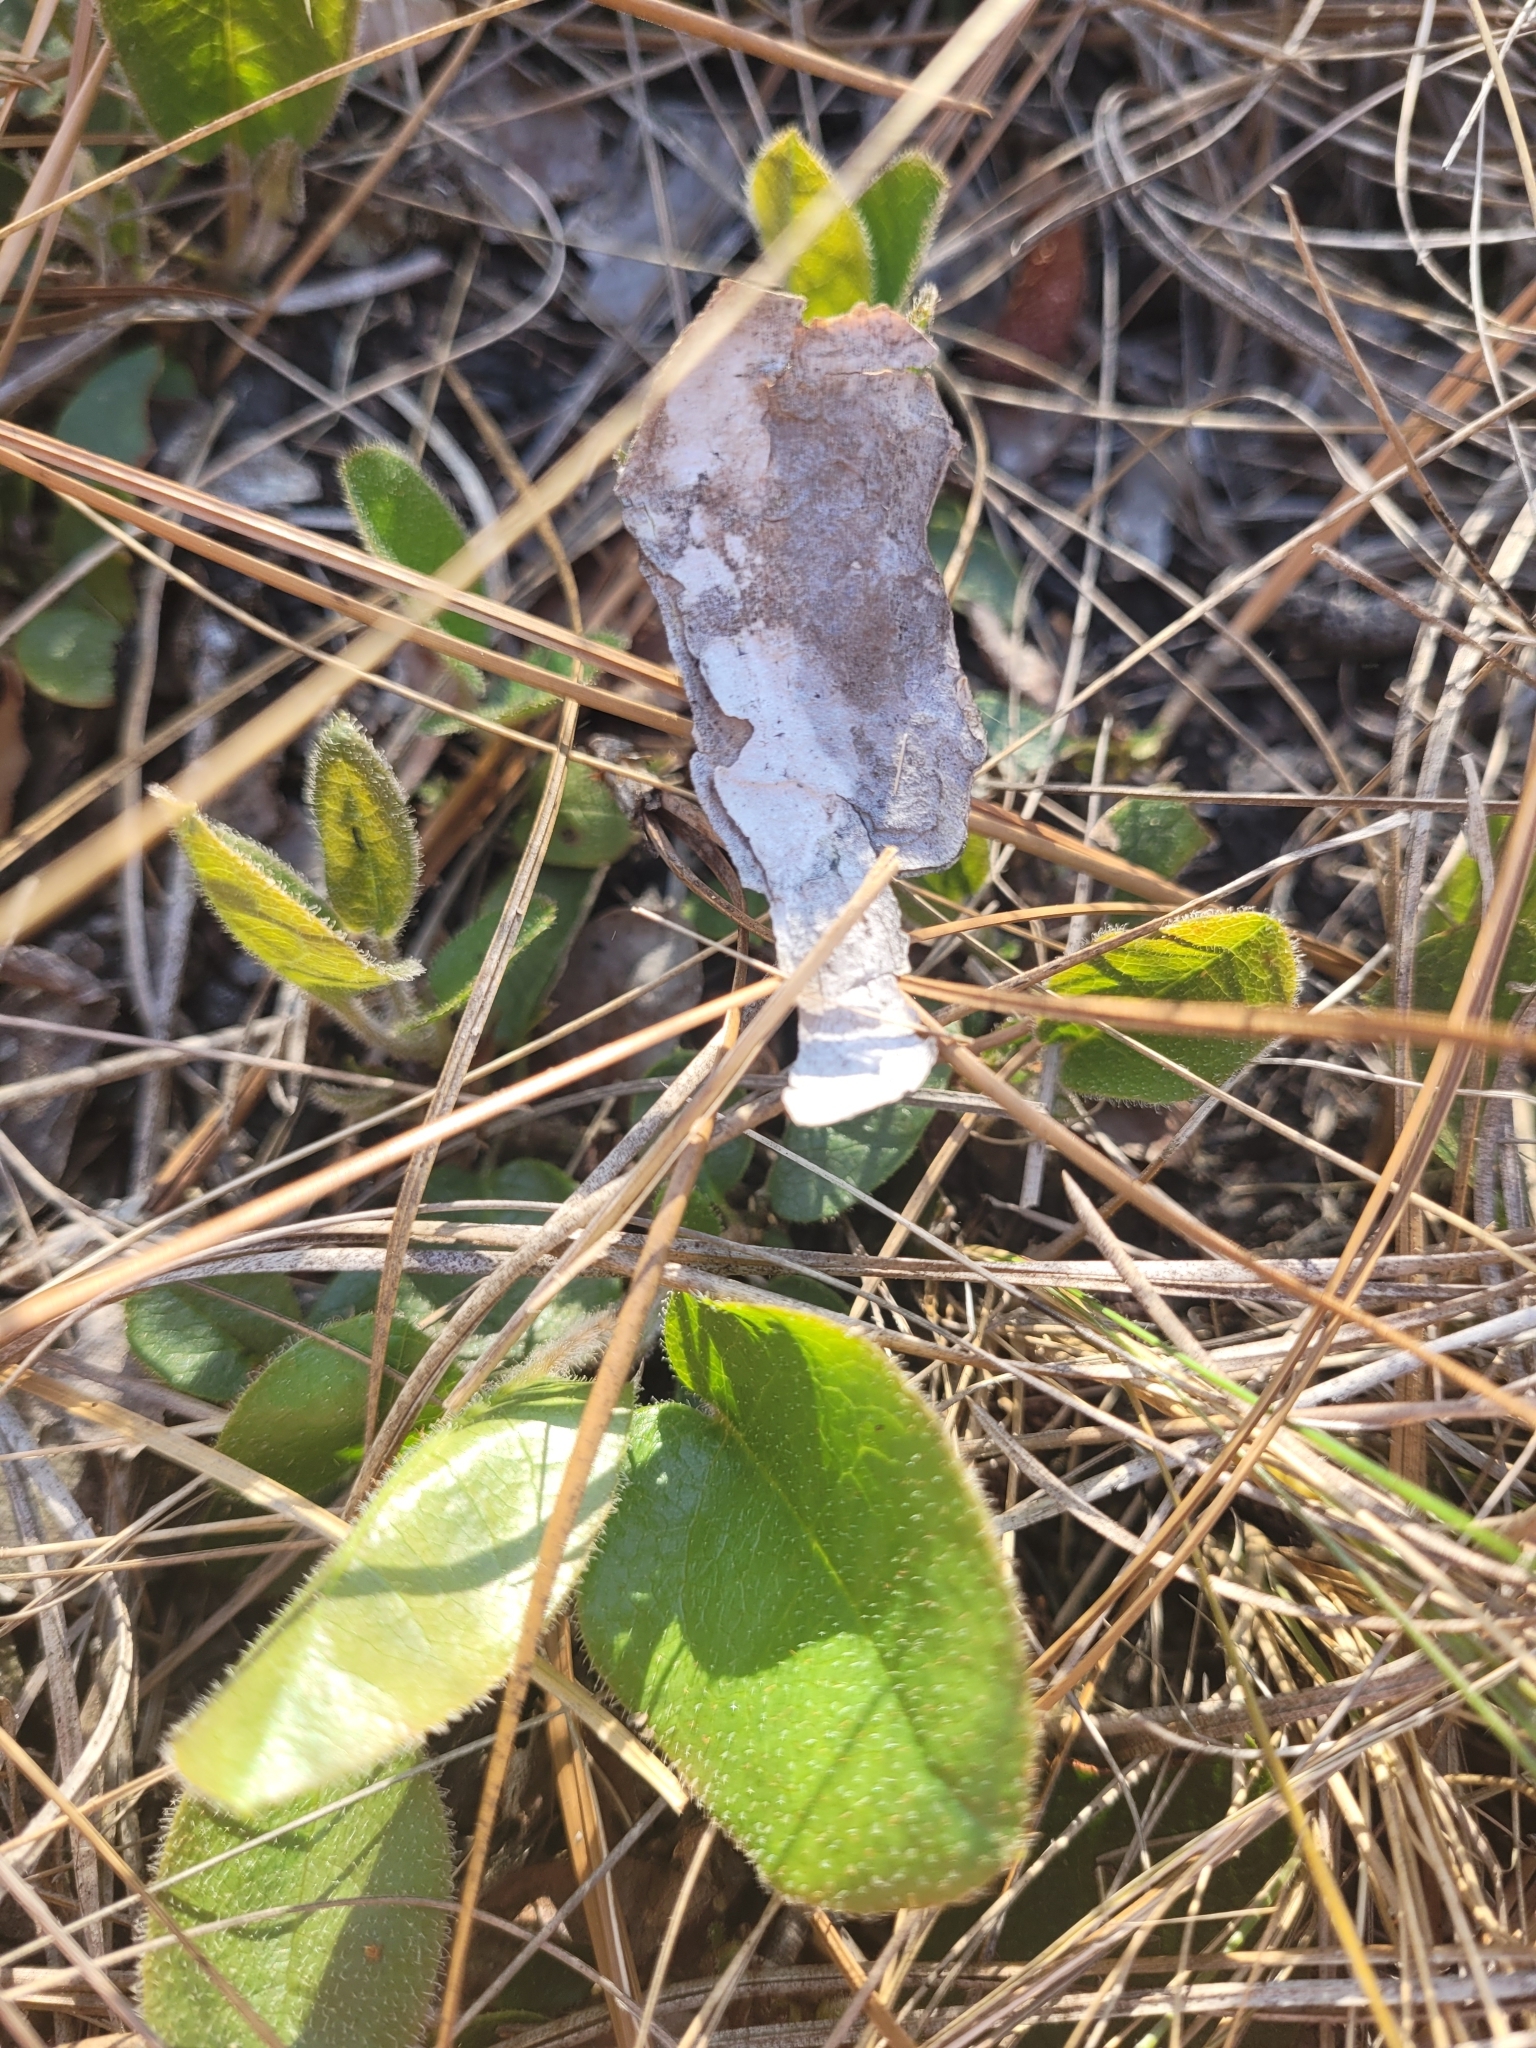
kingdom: Plantae
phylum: Tracheophyta
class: Magnoliopsida
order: Ericales
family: Ericaceae
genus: Epigaea
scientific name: Epigaea repens
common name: Gravelroot
